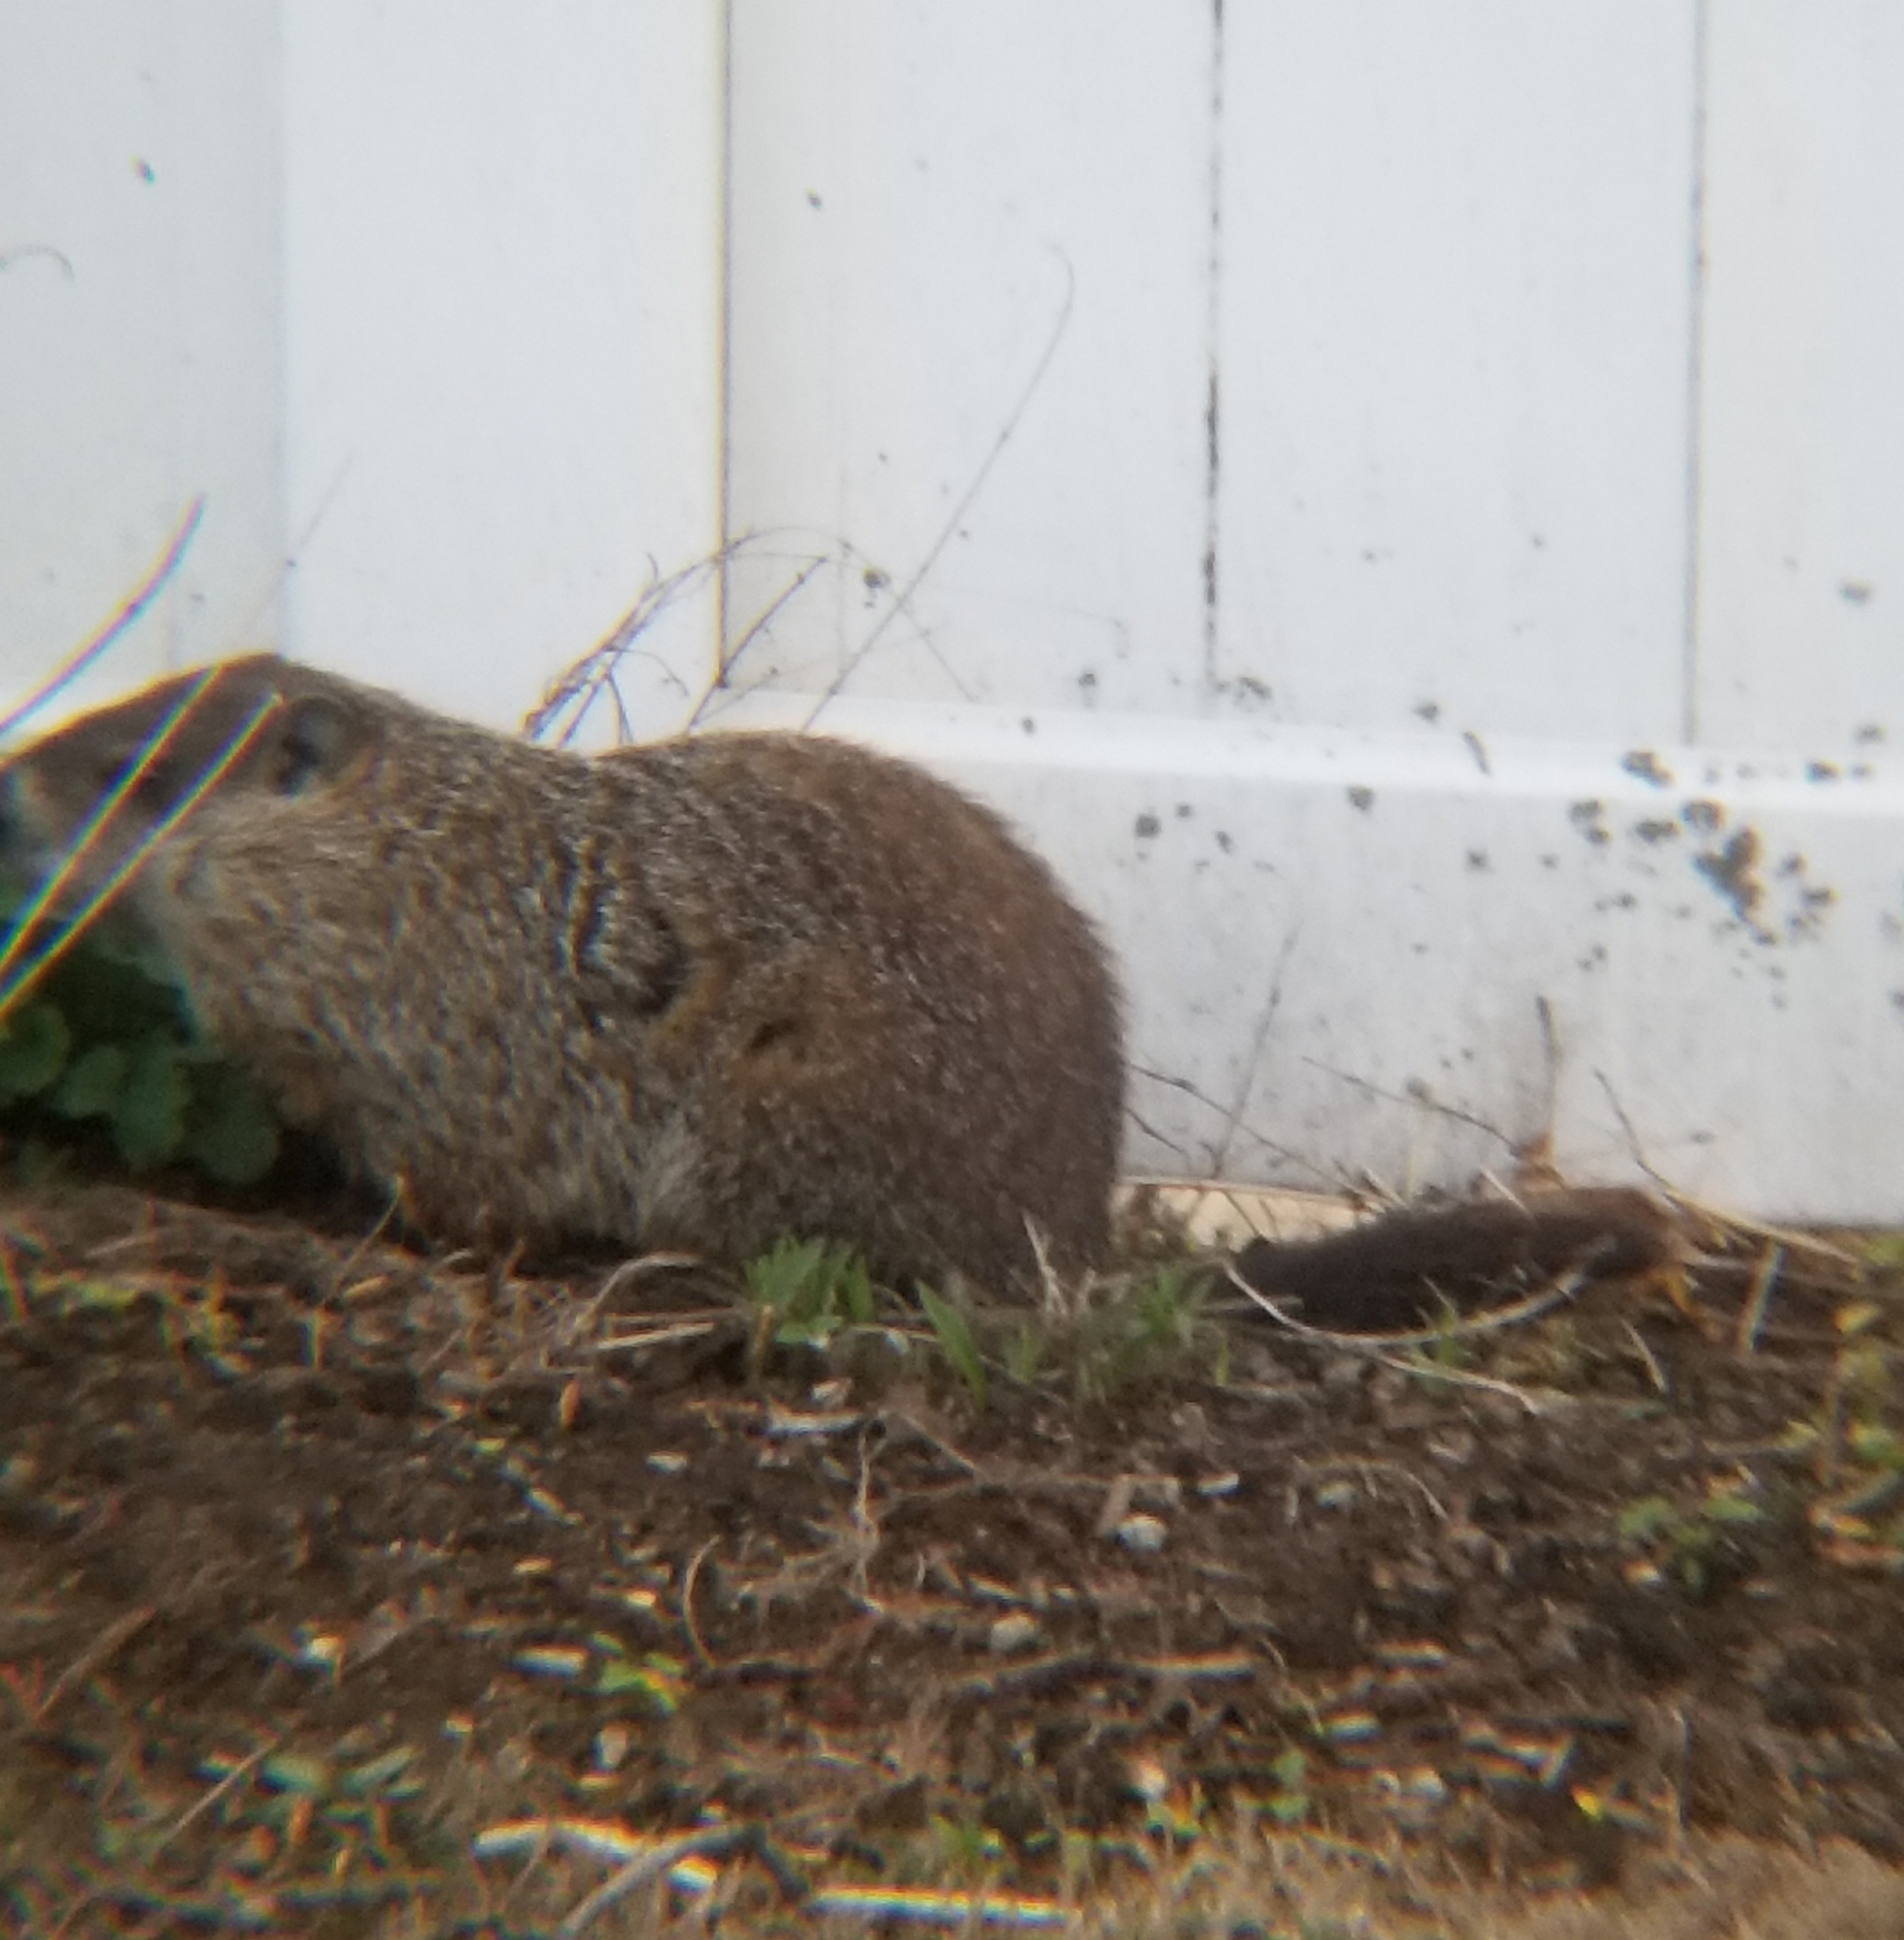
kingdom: Animalia
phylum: Chordata
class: Mammalia
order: Rodentia
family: Sciuridae
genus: Marmota
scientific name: Marmota monax
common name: Groundhog
